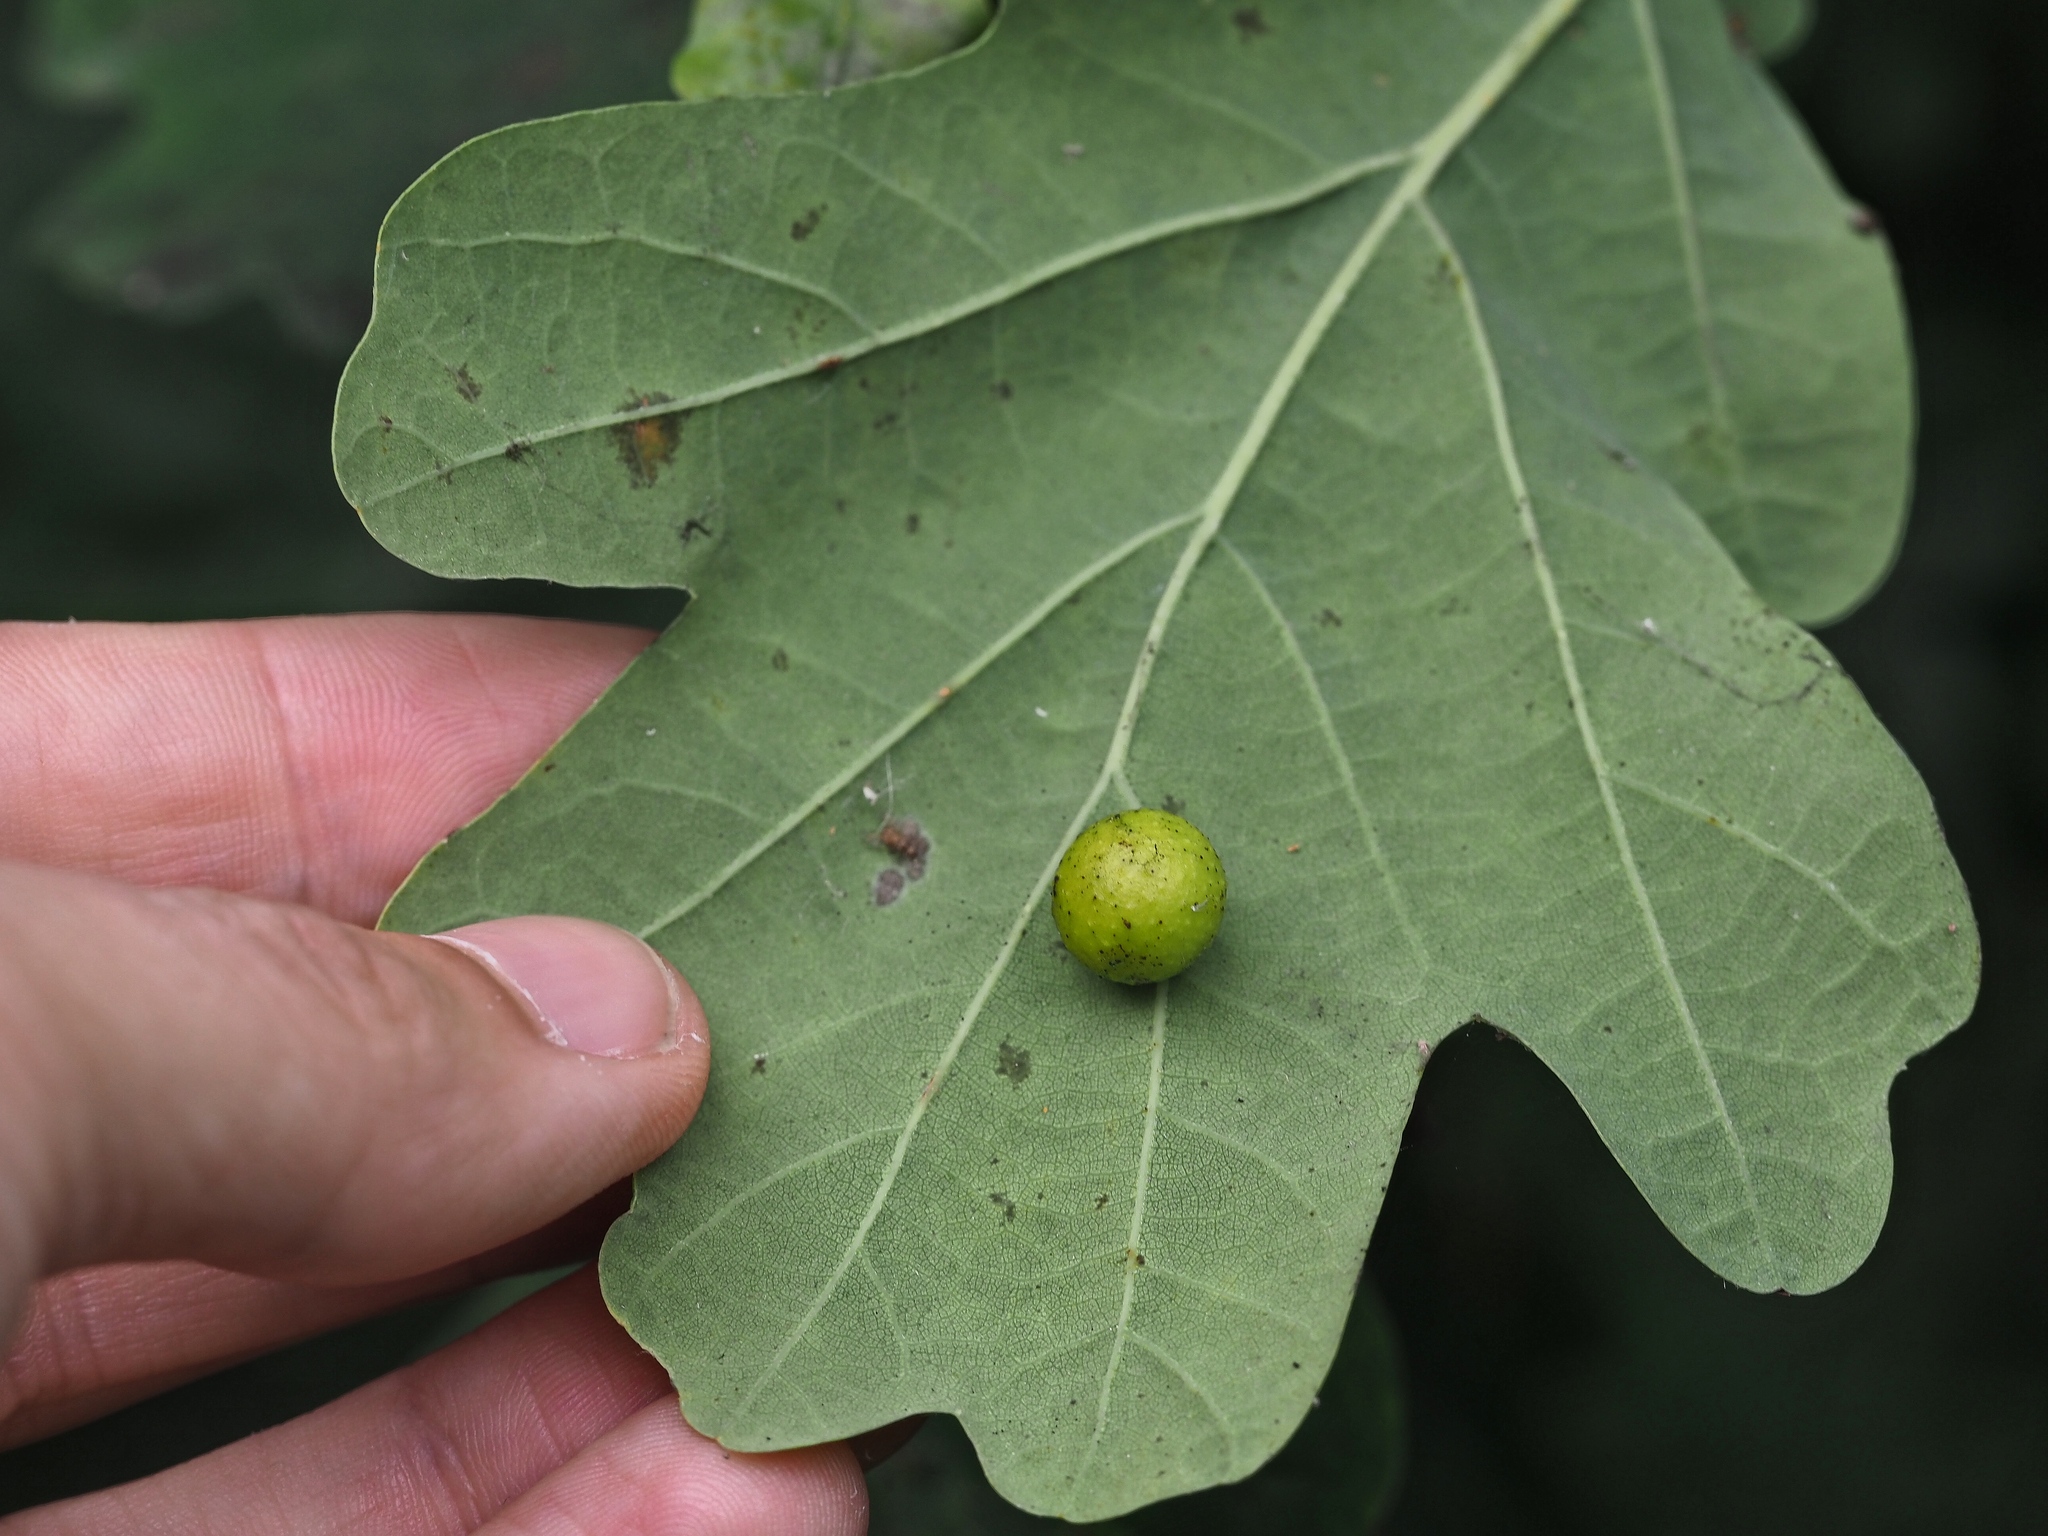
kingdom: Animalia
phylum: Arthropoda
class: Insecta
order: Hymenoptera
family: Cynipidae
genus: Cynips
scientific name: Cynips quercusfolii
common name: Cherry gall
